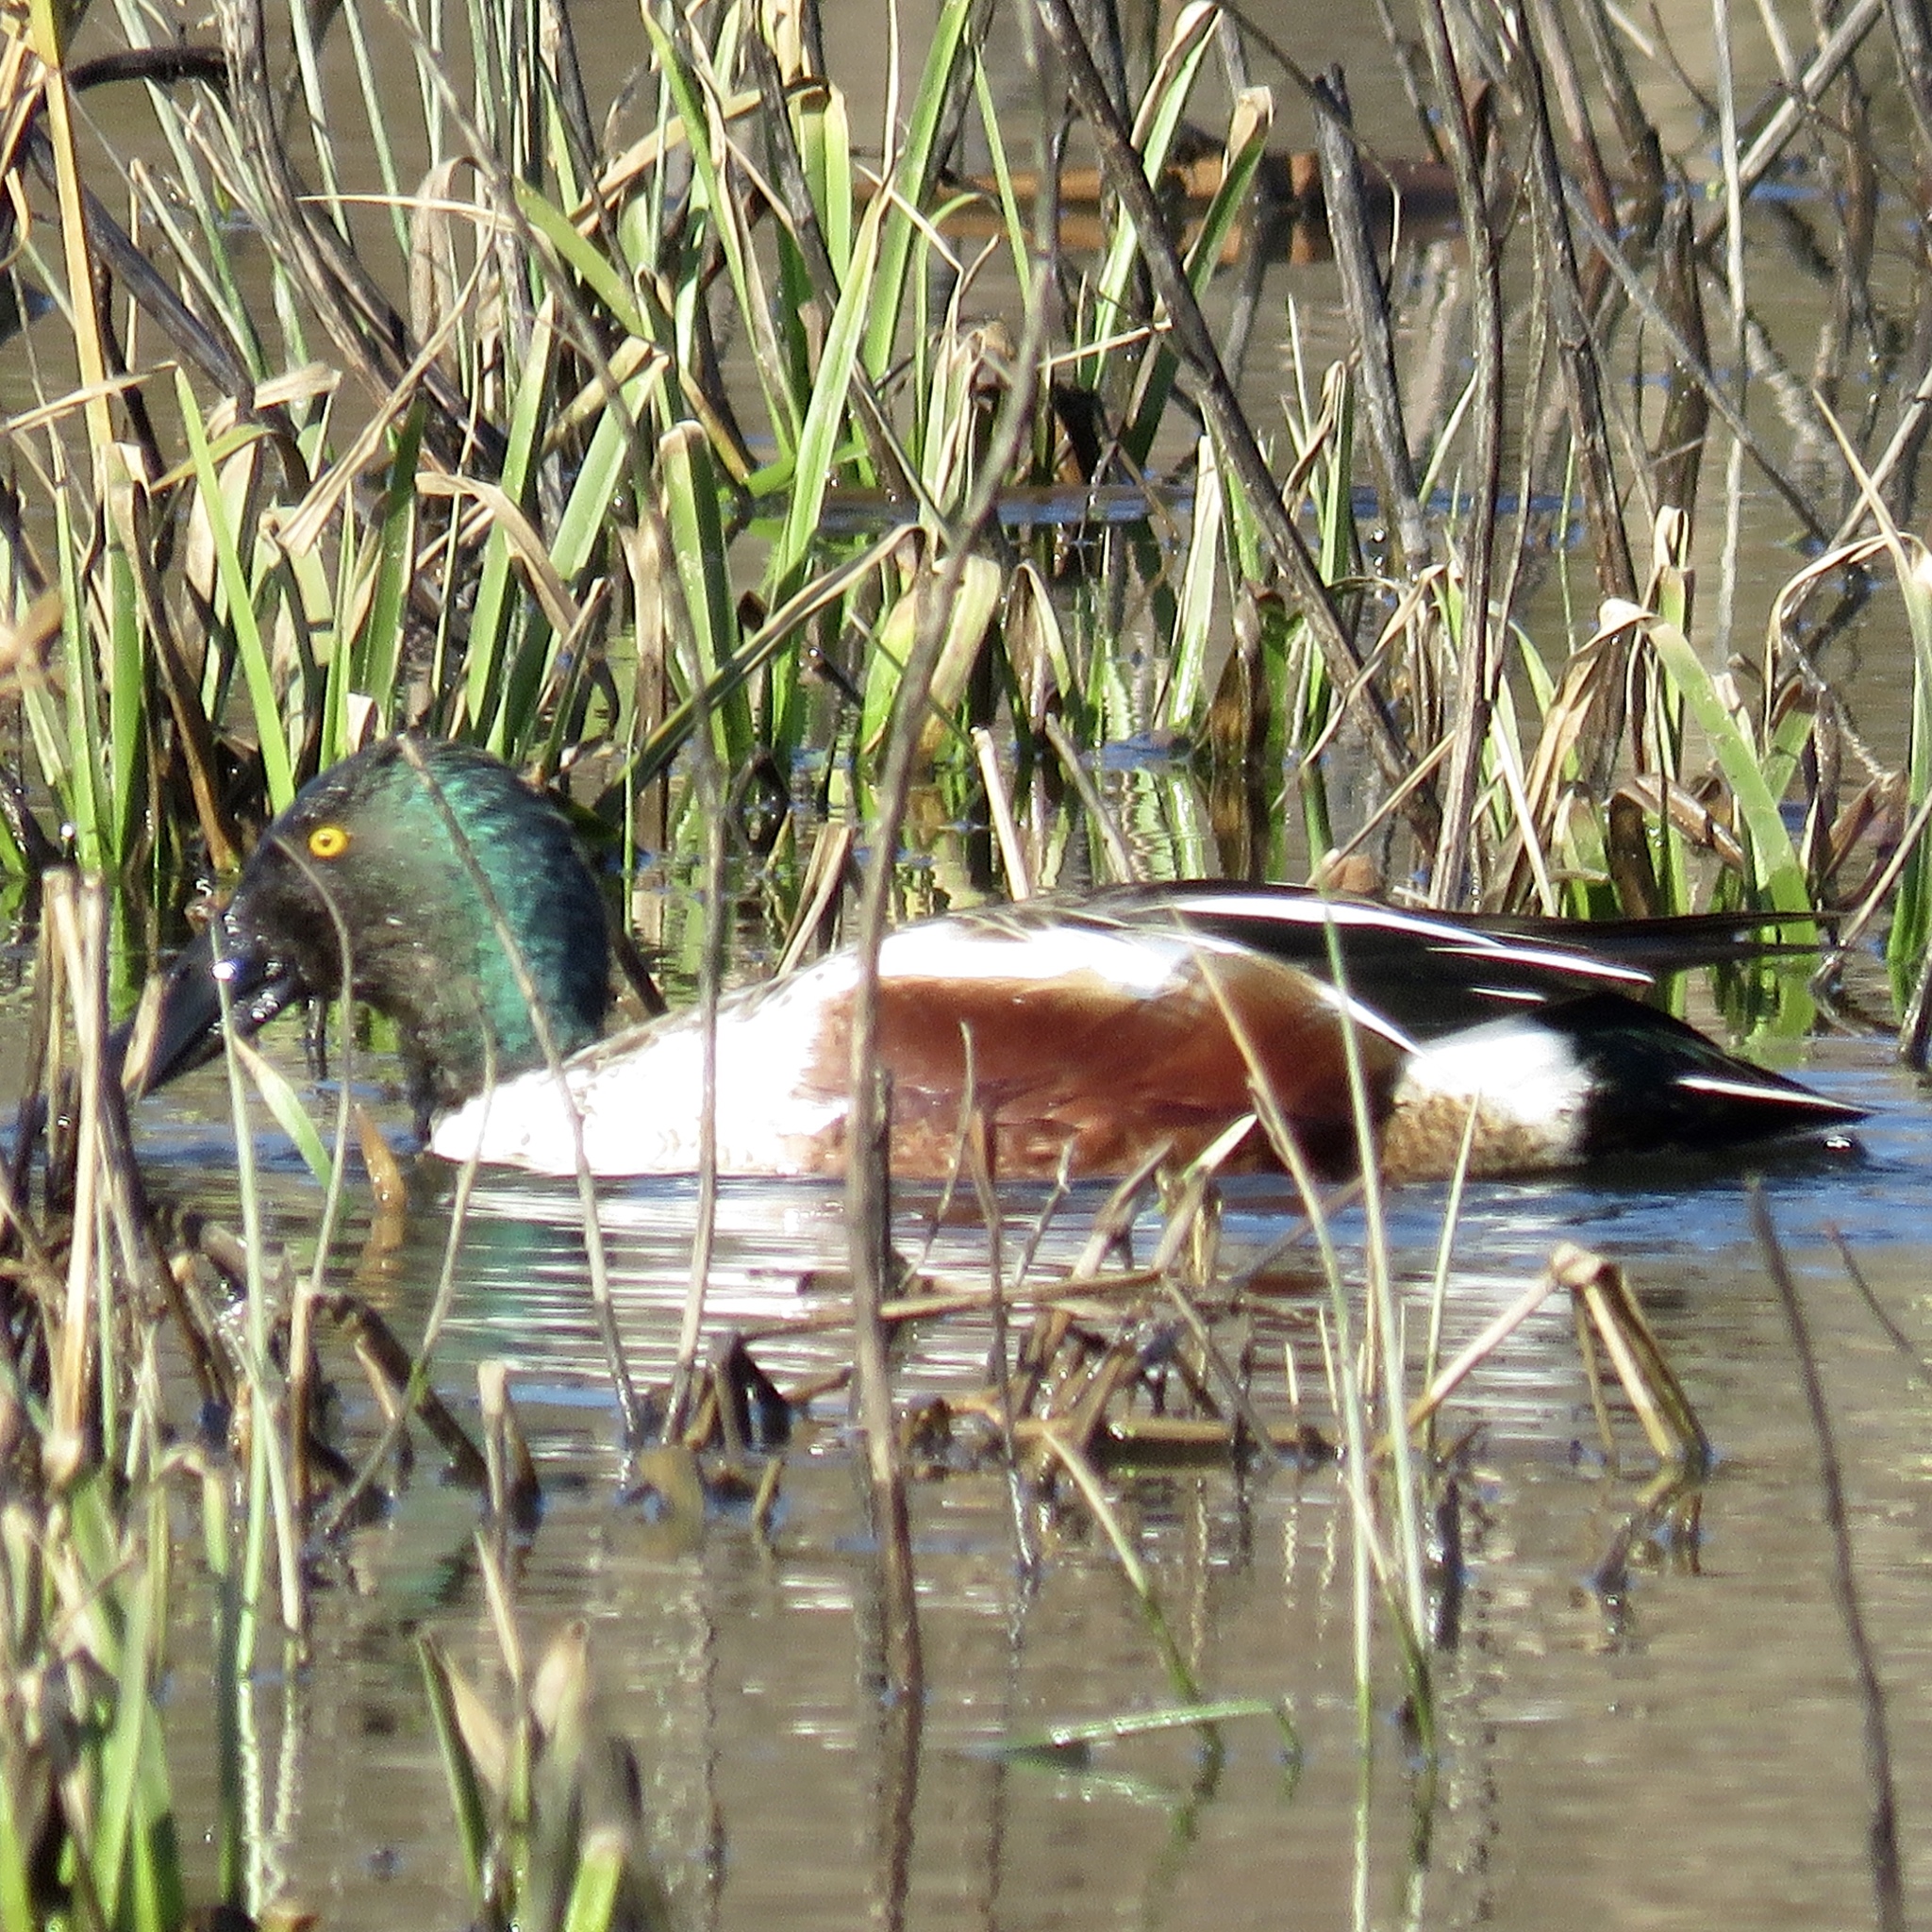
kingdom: Animalia
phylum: Chordata
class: Aves
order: Anseriformes
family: Anatidae
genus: Spatula
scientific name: Spatula clypeata
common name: Northern shoveler
